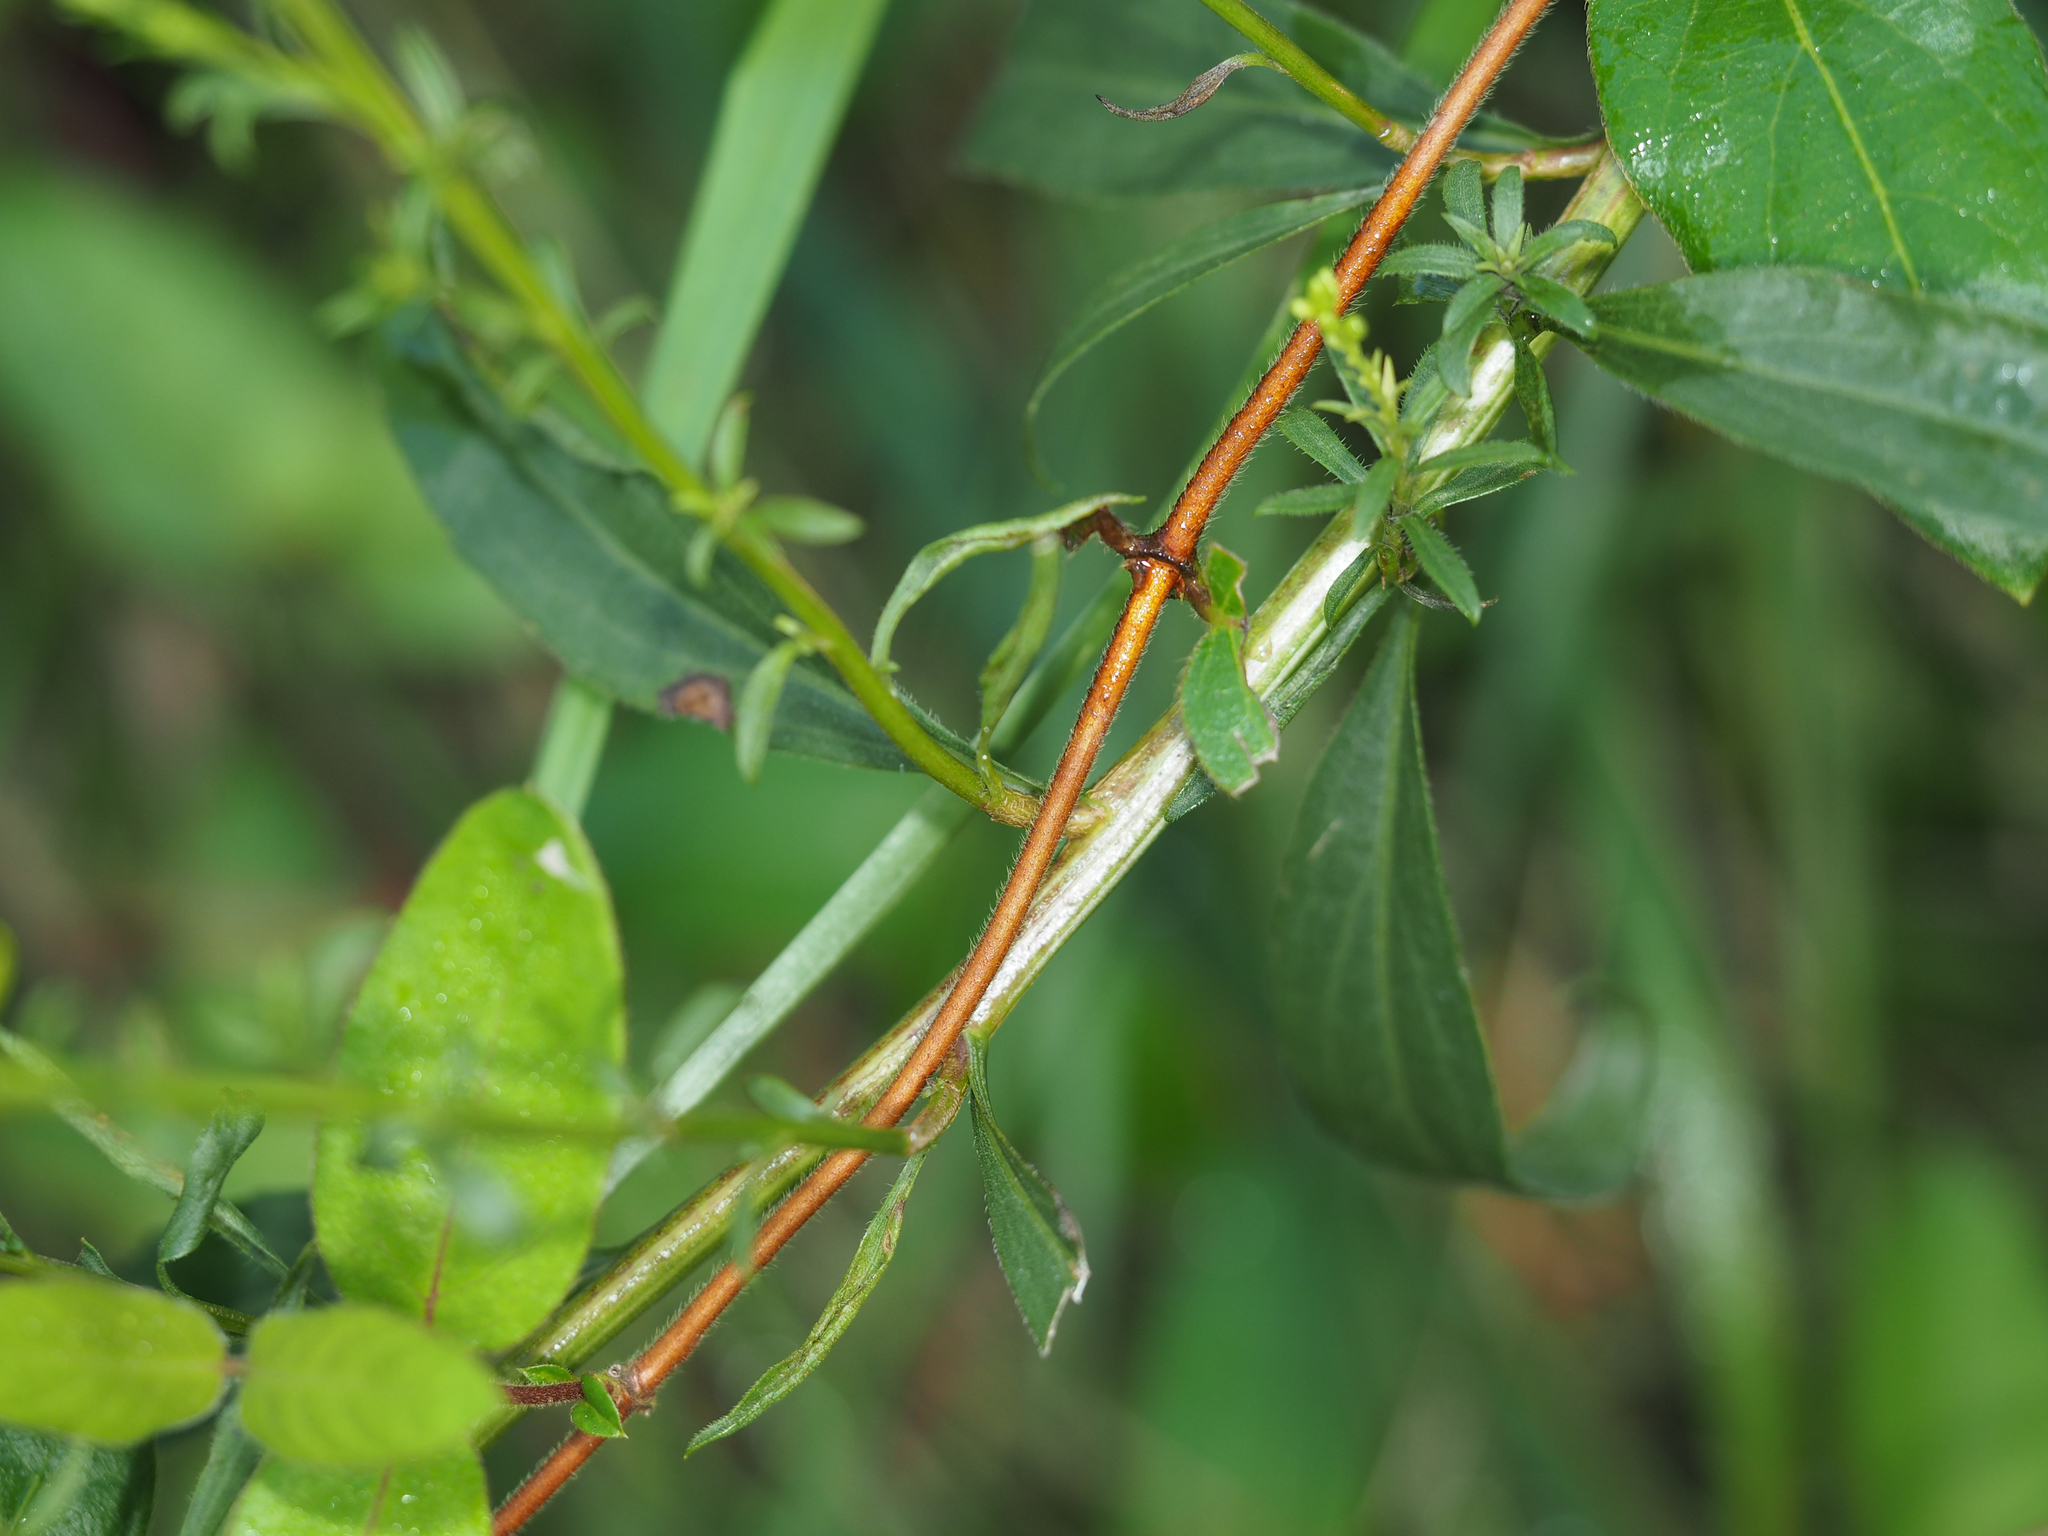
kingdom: Plantae
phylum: Tracheophyta
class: Magnoliopsida
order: Asterales
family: Asteraceae
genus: Solidago
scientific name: Solidago juncea
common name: Early goldenrod
